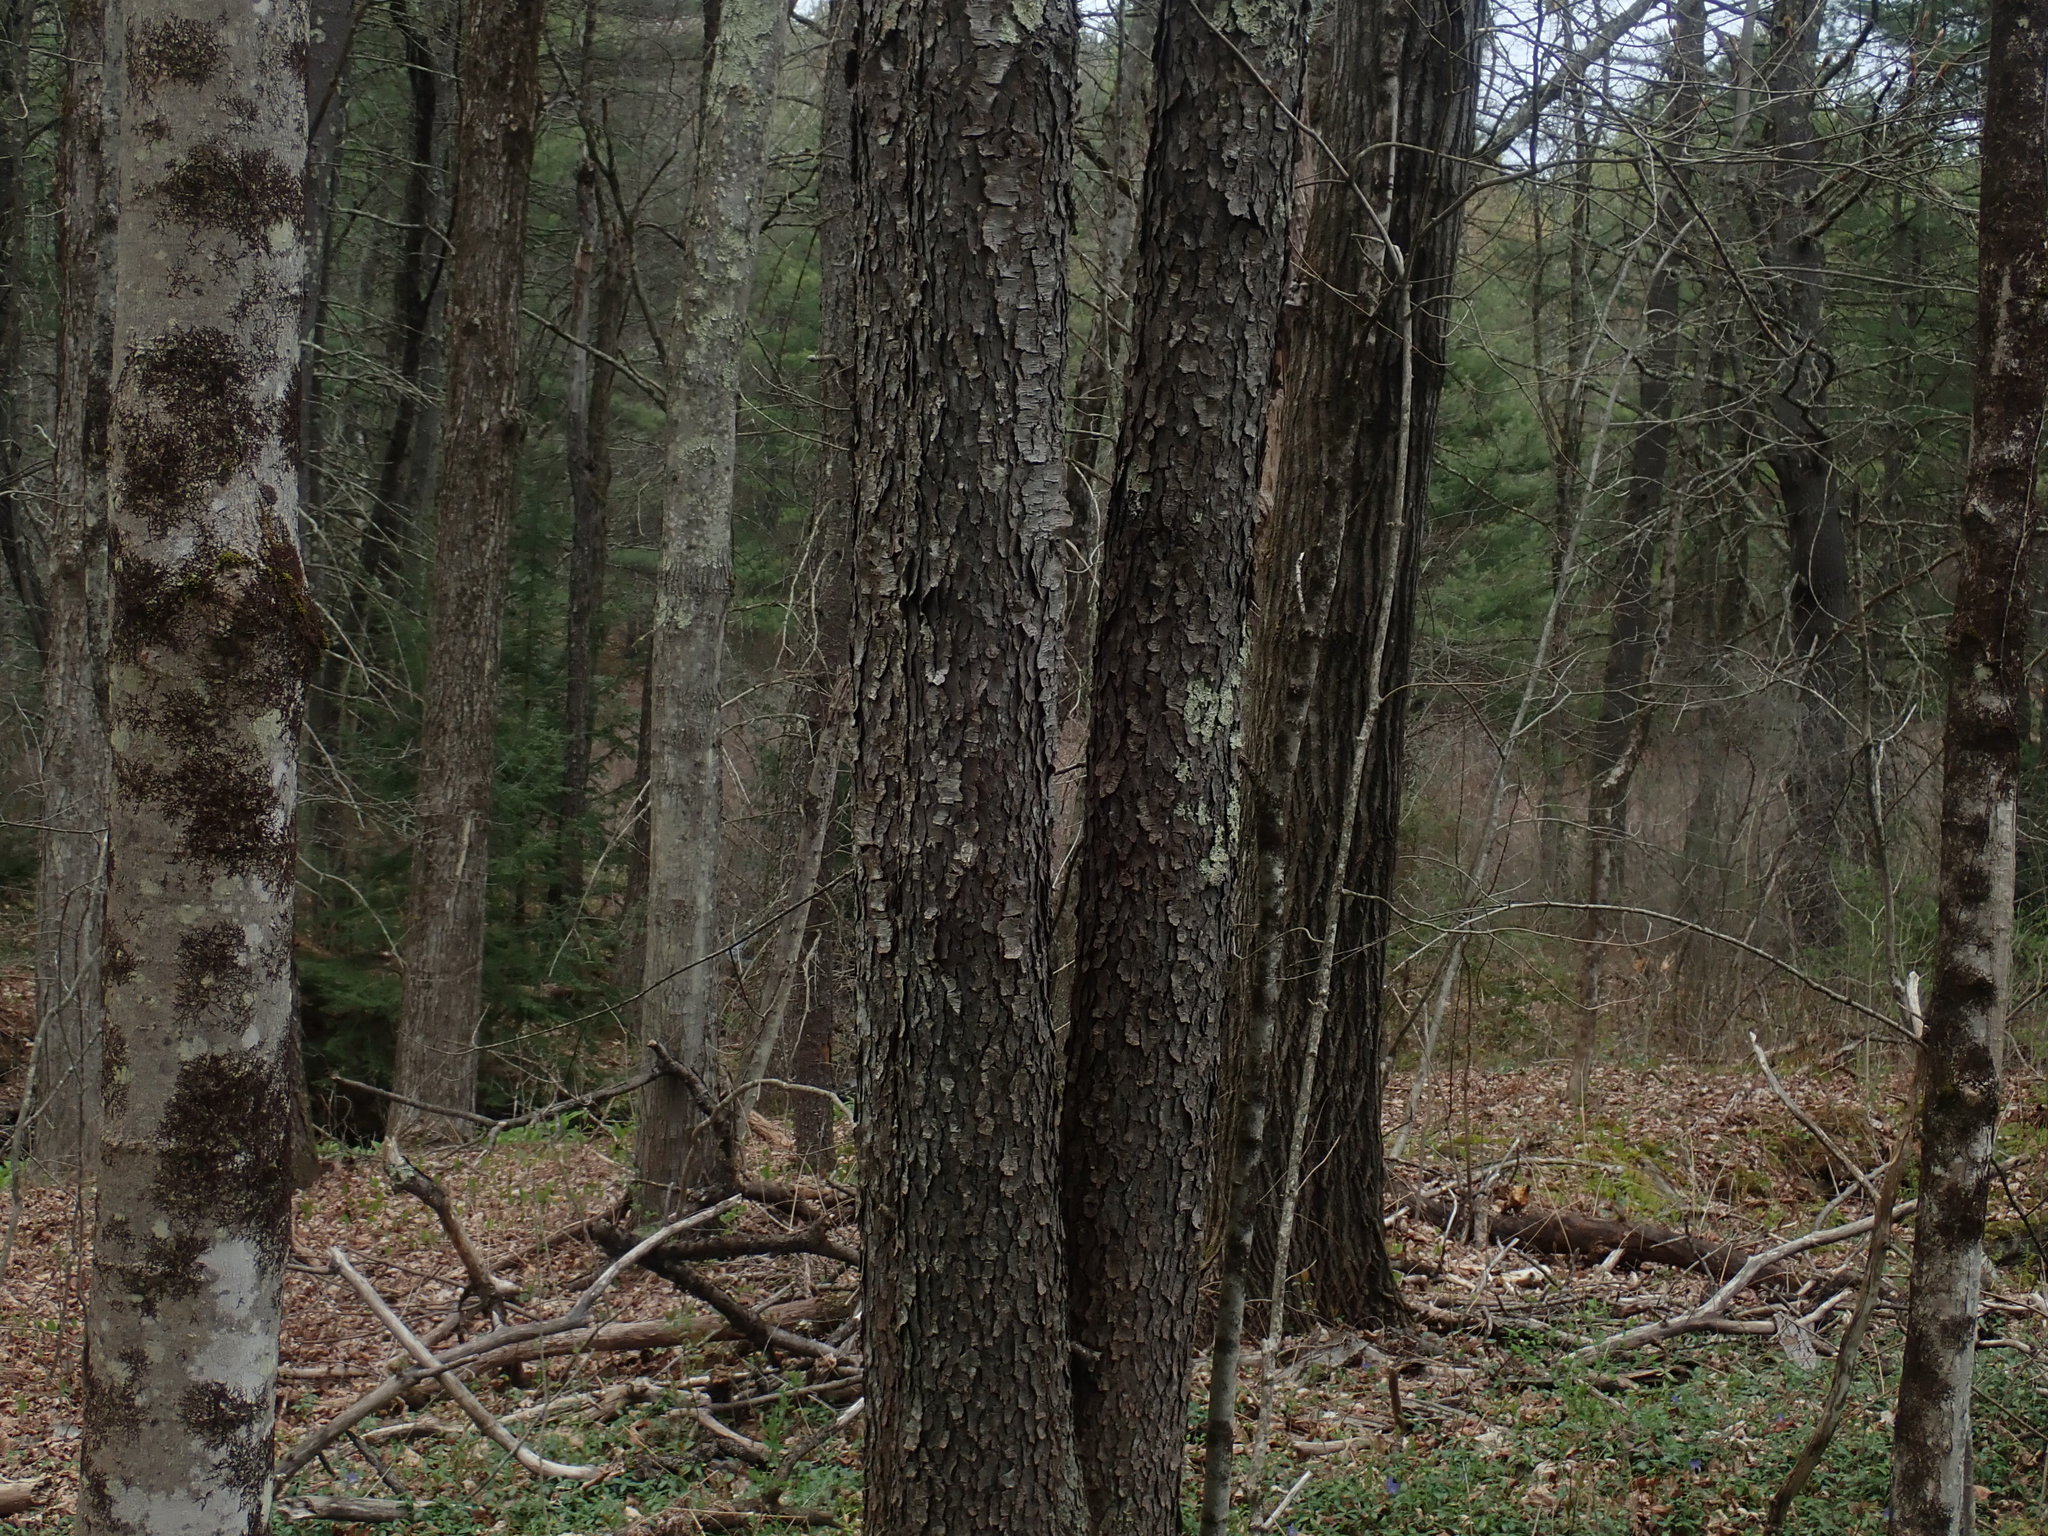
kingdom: Plantae
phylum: Tracheophyta
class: Magnoliopsida
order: Rosales
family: Rosaceae
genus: Prunus
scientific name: Prunus serotina
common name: Black cherry
